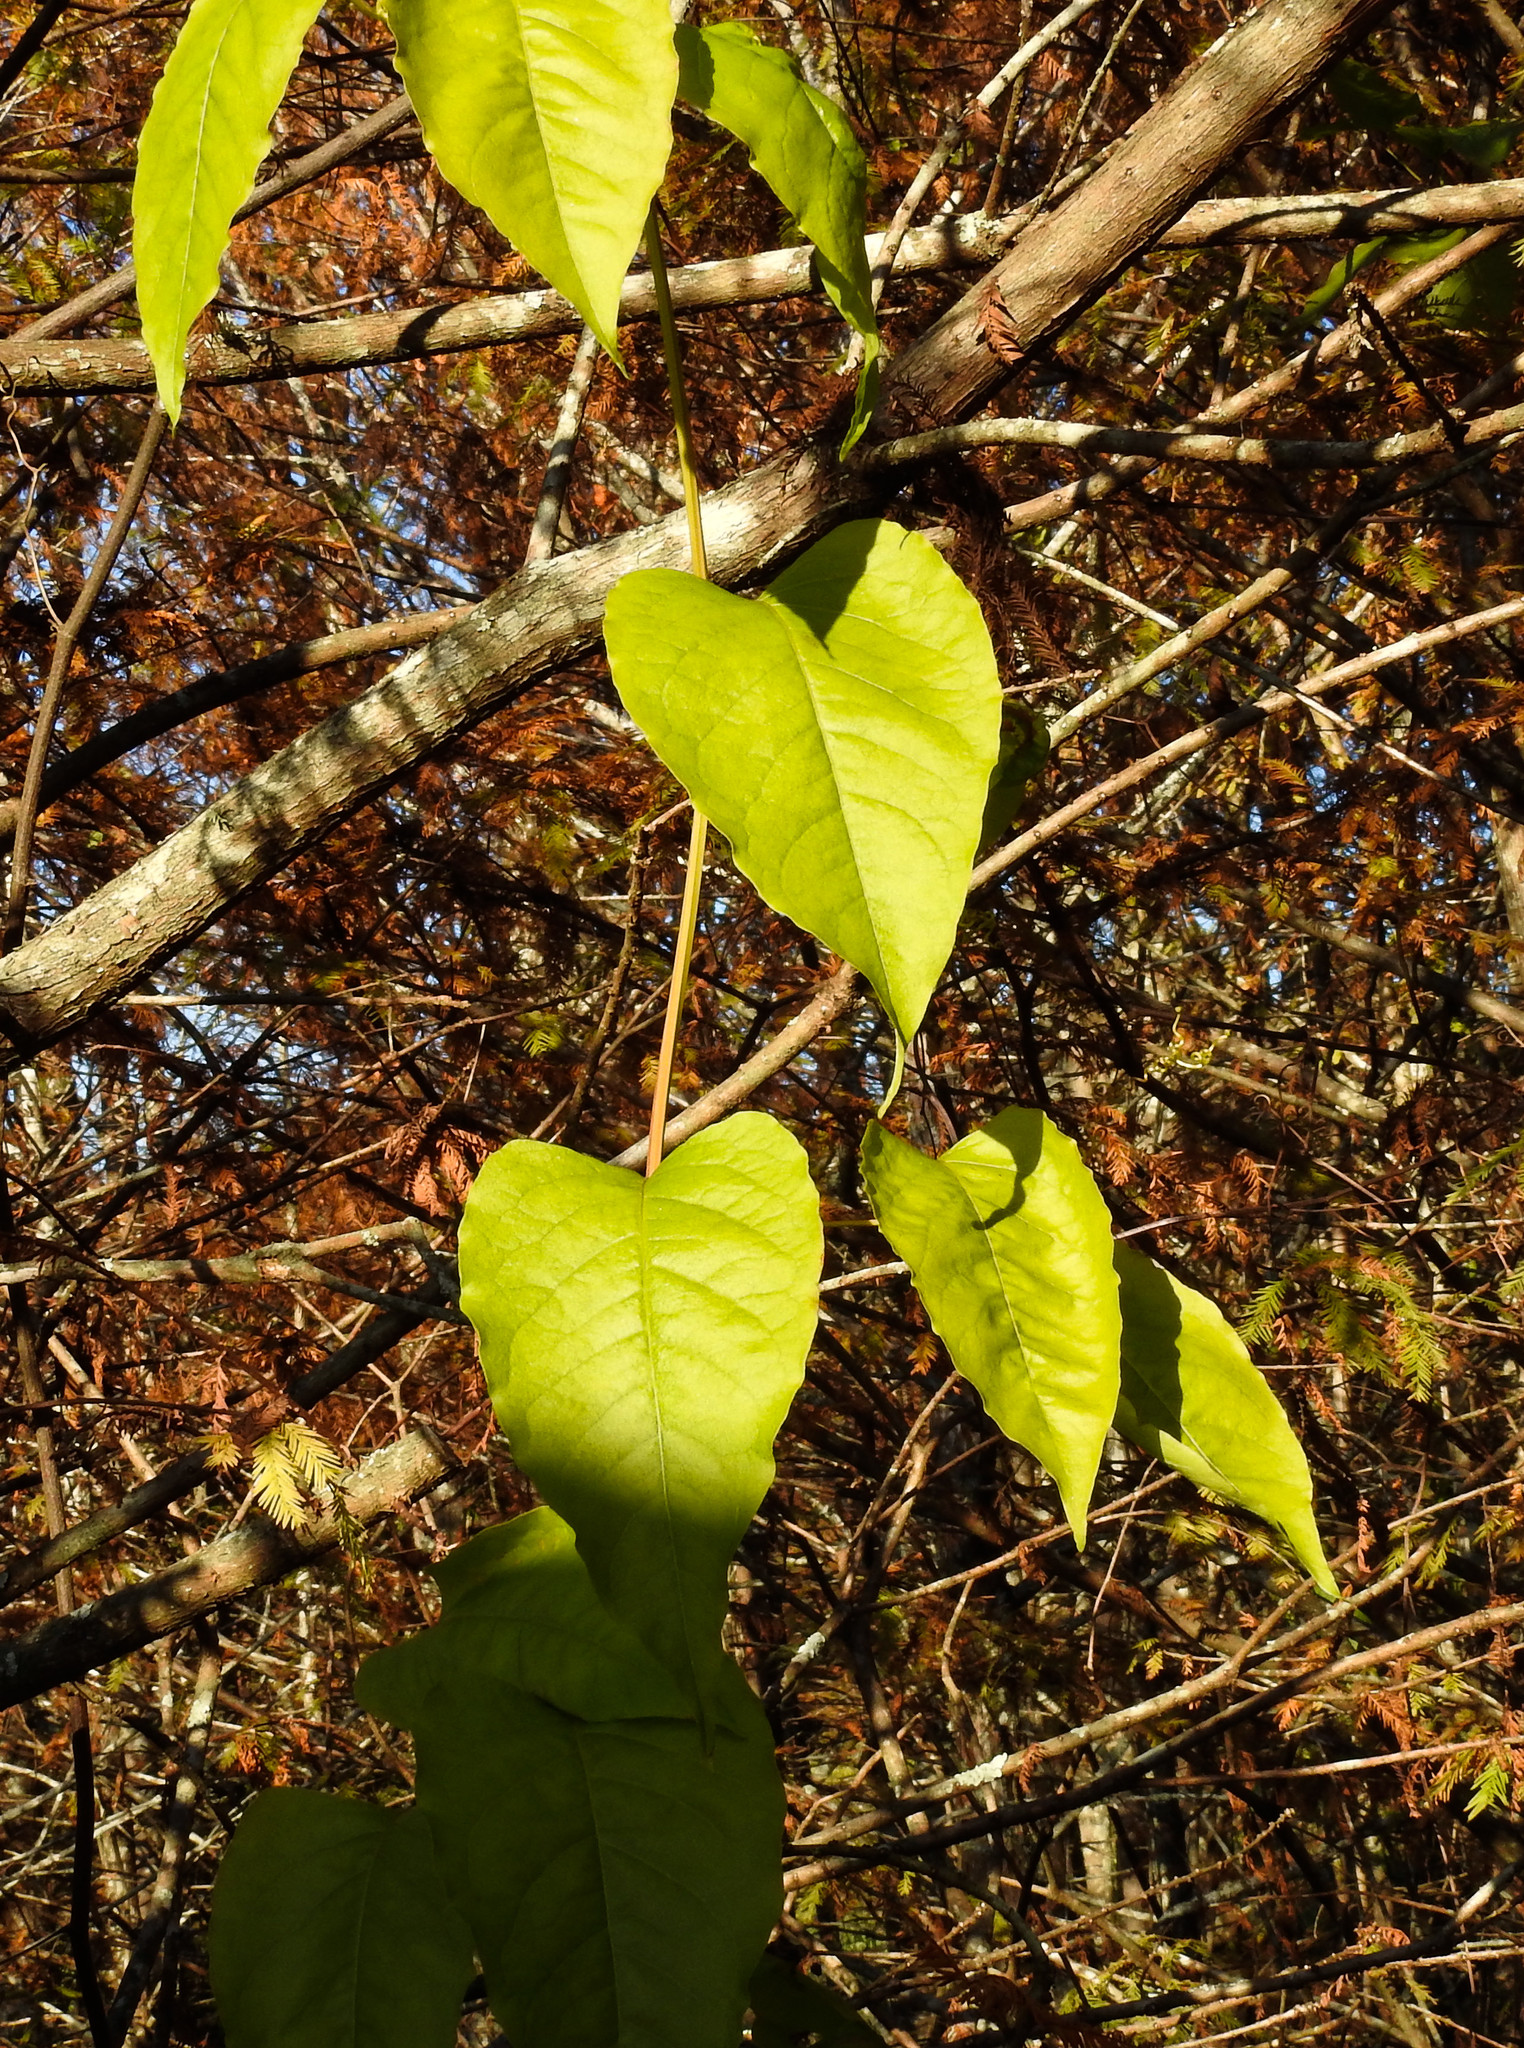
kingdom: Plantae
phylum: Tracheophyta
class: Magnoliopsida
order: Caryophyllales
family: Polygonaceae
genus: Brunnichia
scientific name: Brunnichia ovata
